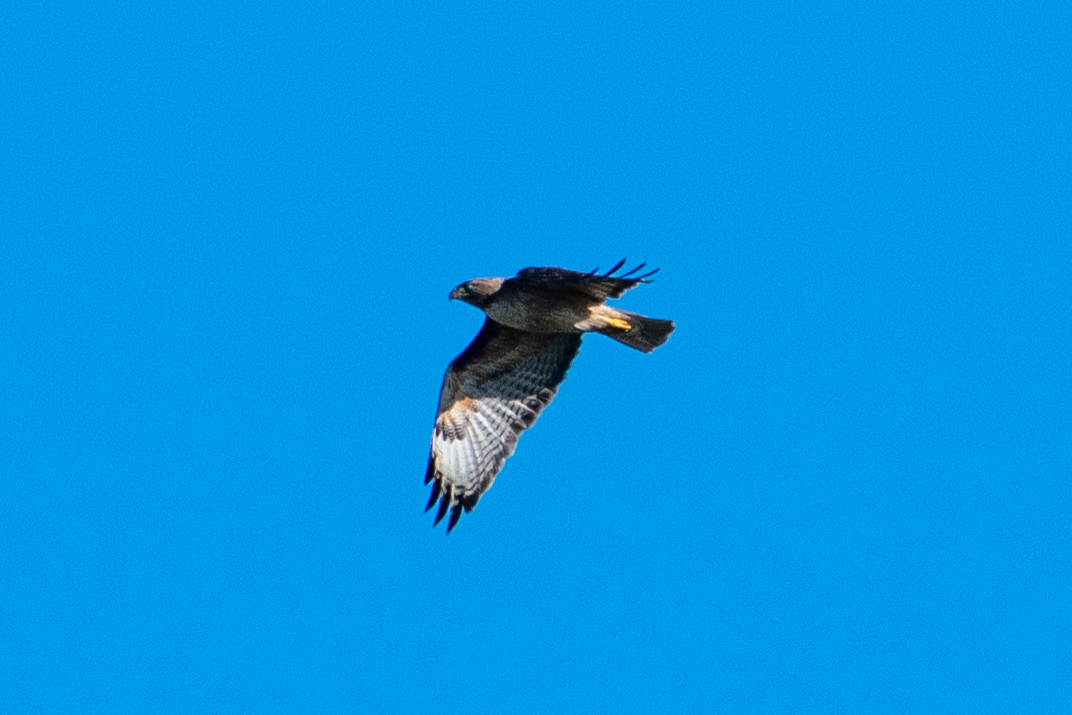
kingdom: Animalia
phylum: Chordata
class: Aves
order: Accipitriformes
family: Accipitridae
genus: Buteo
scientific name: Buteo jamaicensis
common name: Red-tailed hawk
